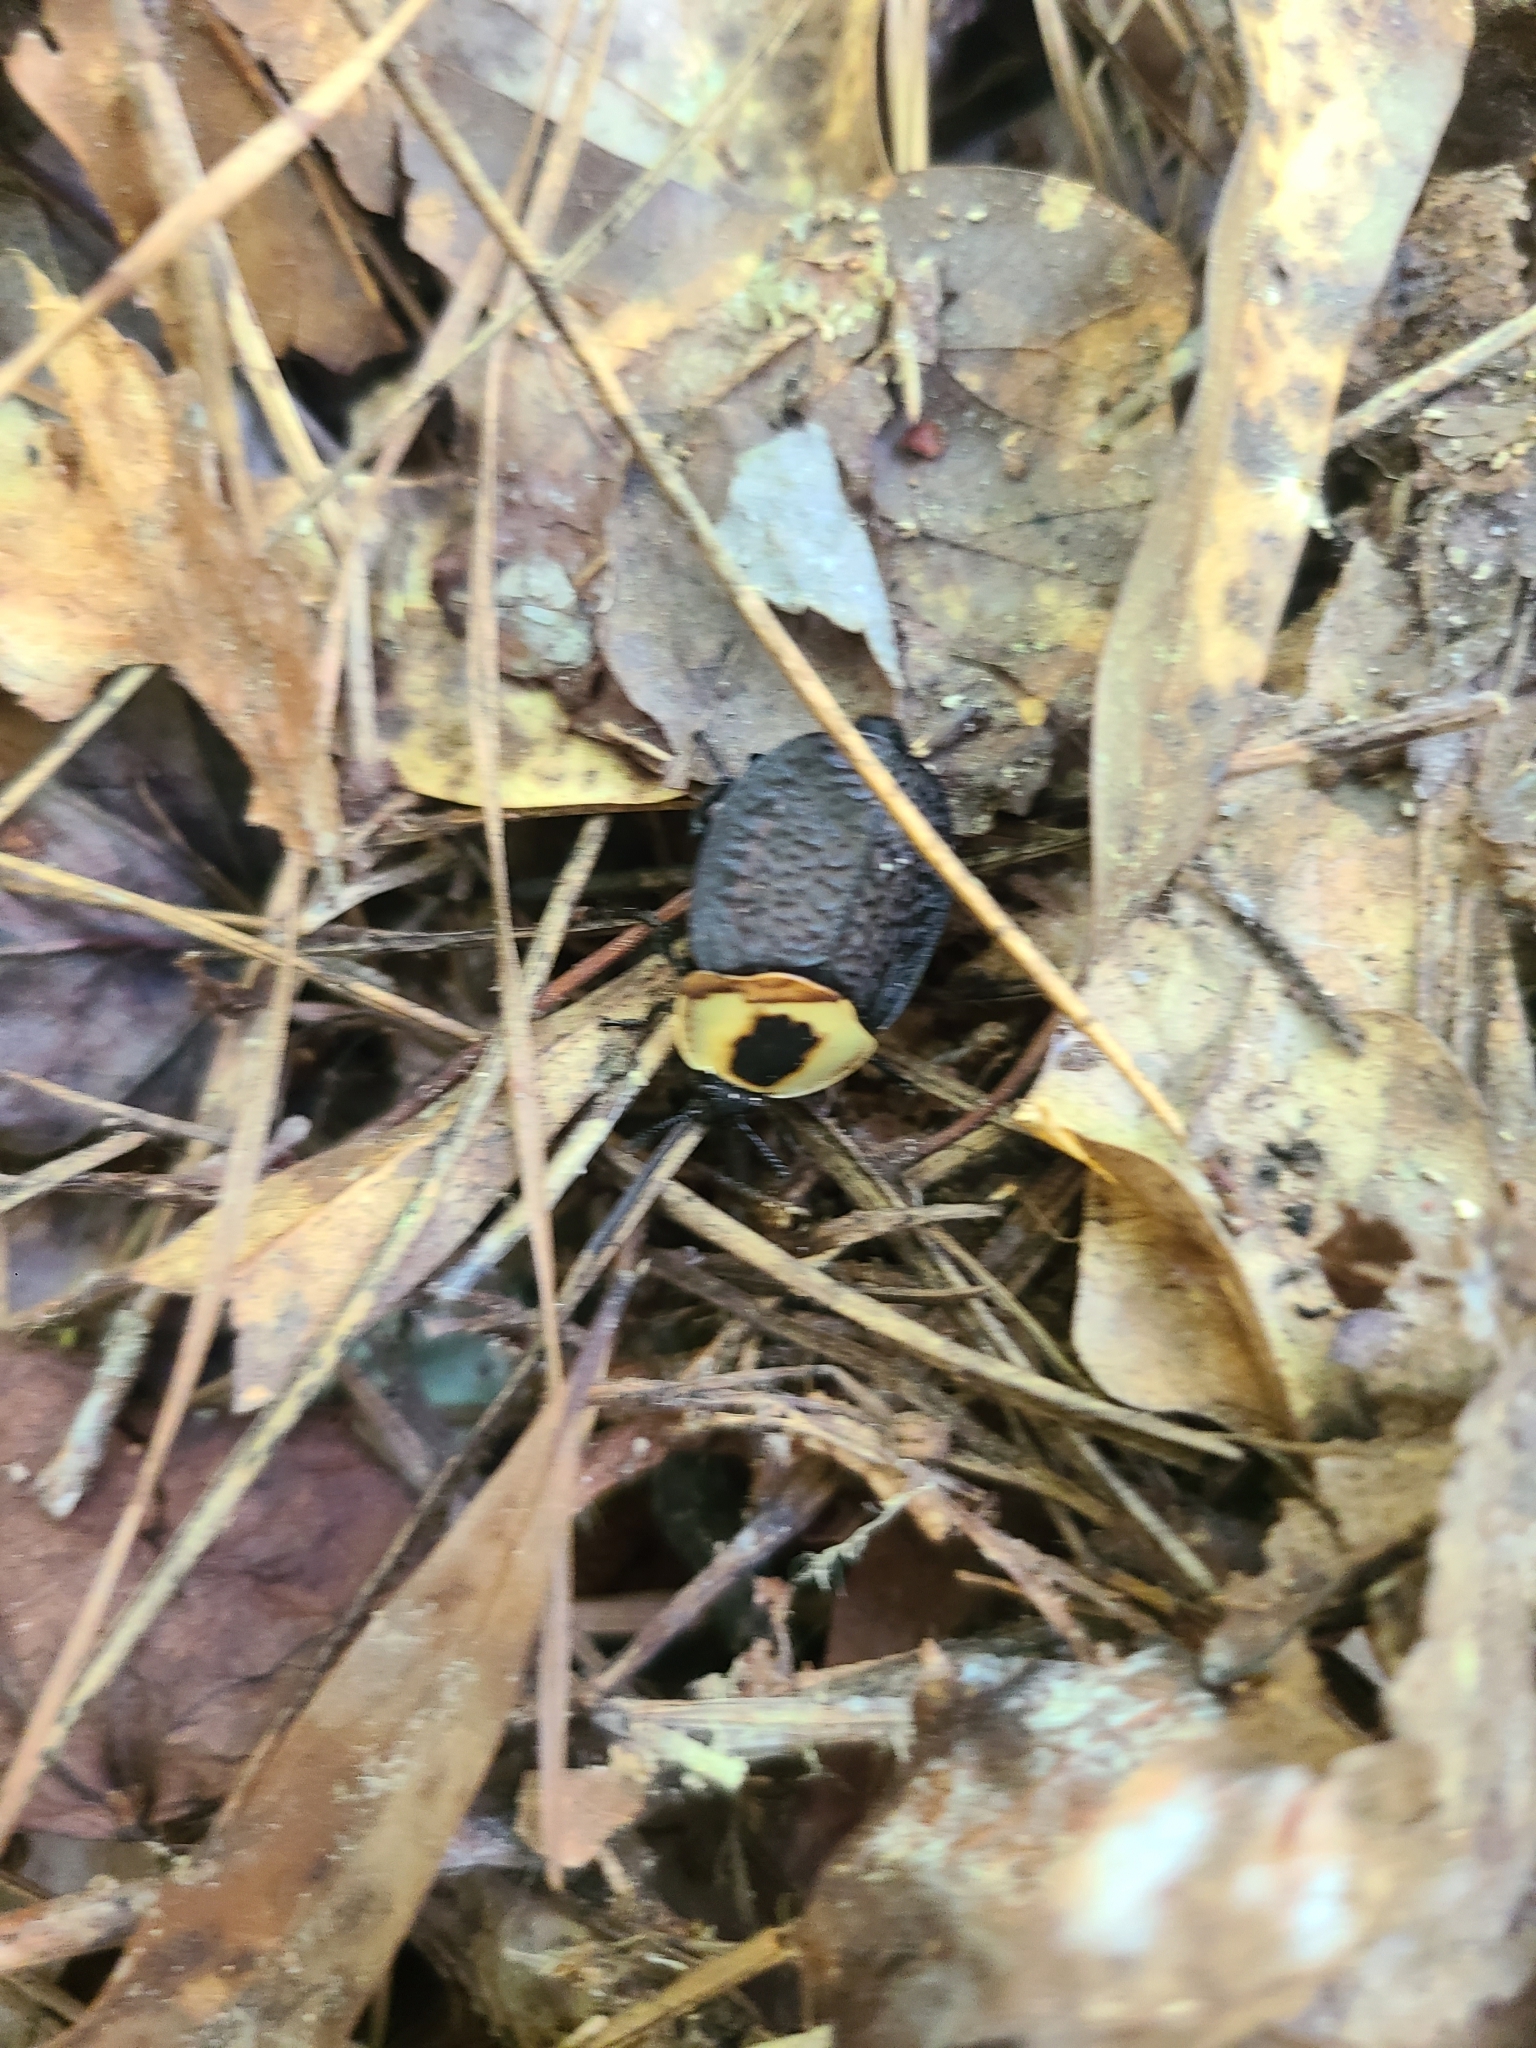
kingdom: Animalia
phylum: Arthropoda
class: Insecta
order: Coleoptera
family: Staphylinidae
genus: Necrophila
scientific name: Necrophila americana
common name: American carrion beetle
